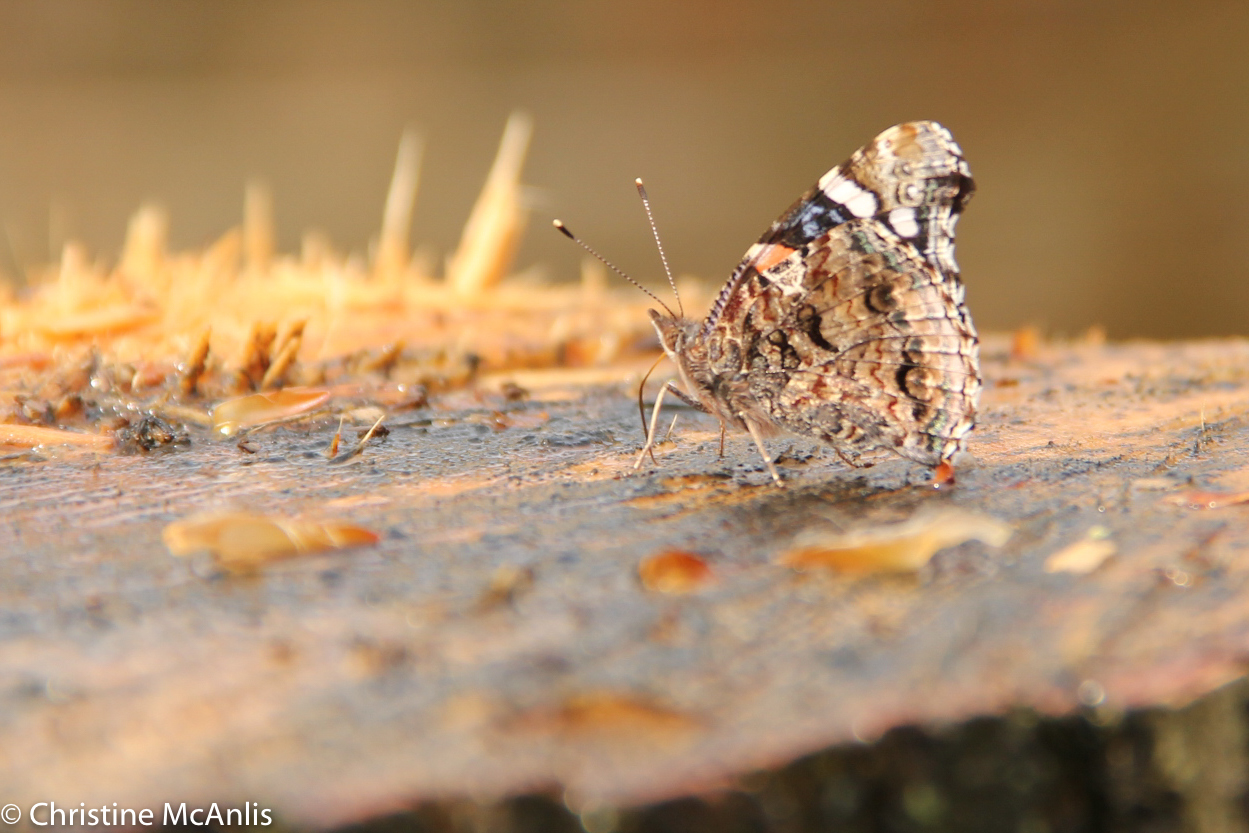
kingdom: Animalia
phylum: Arthropoda
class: Insecta
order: Lepidoptera
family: Nymphalidae
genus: Vanessa
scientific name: Vanessa atalanta
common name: Red admiral
